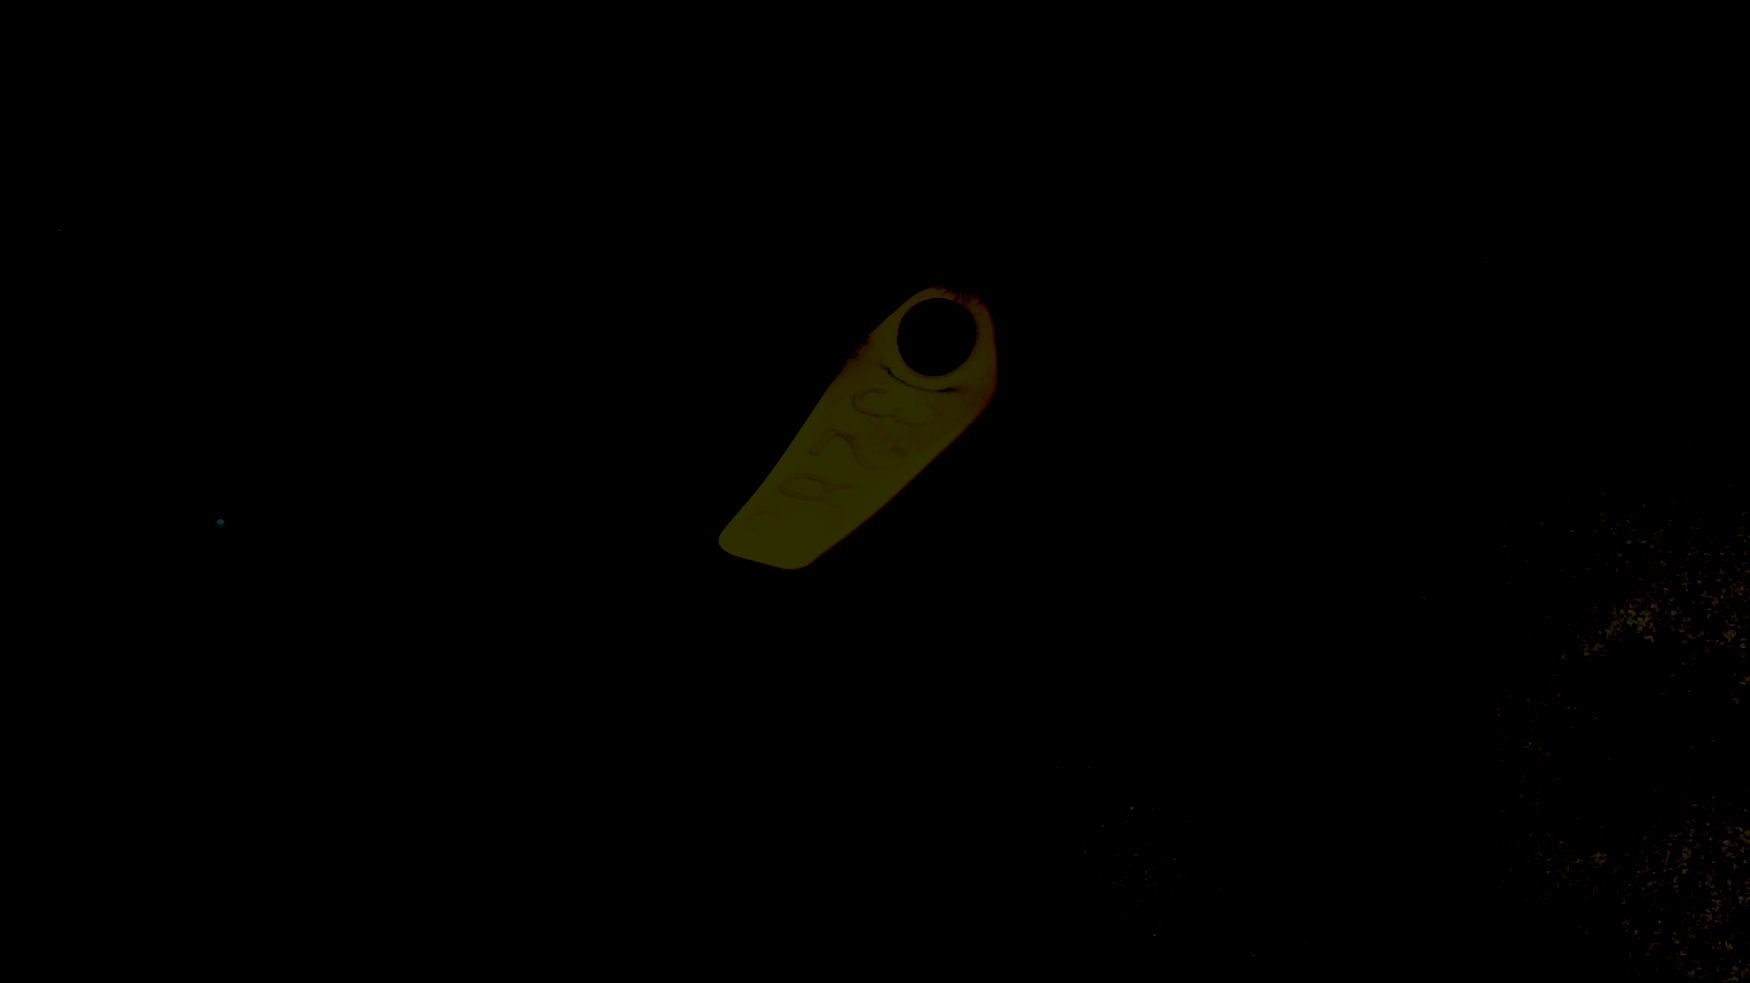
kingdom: Animalia
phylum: Chordata
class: Mammalia
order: Carnivora
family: Otariidae
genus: Phocarctos
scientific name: Phocarctos hookeri
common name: New zealand sea lion
